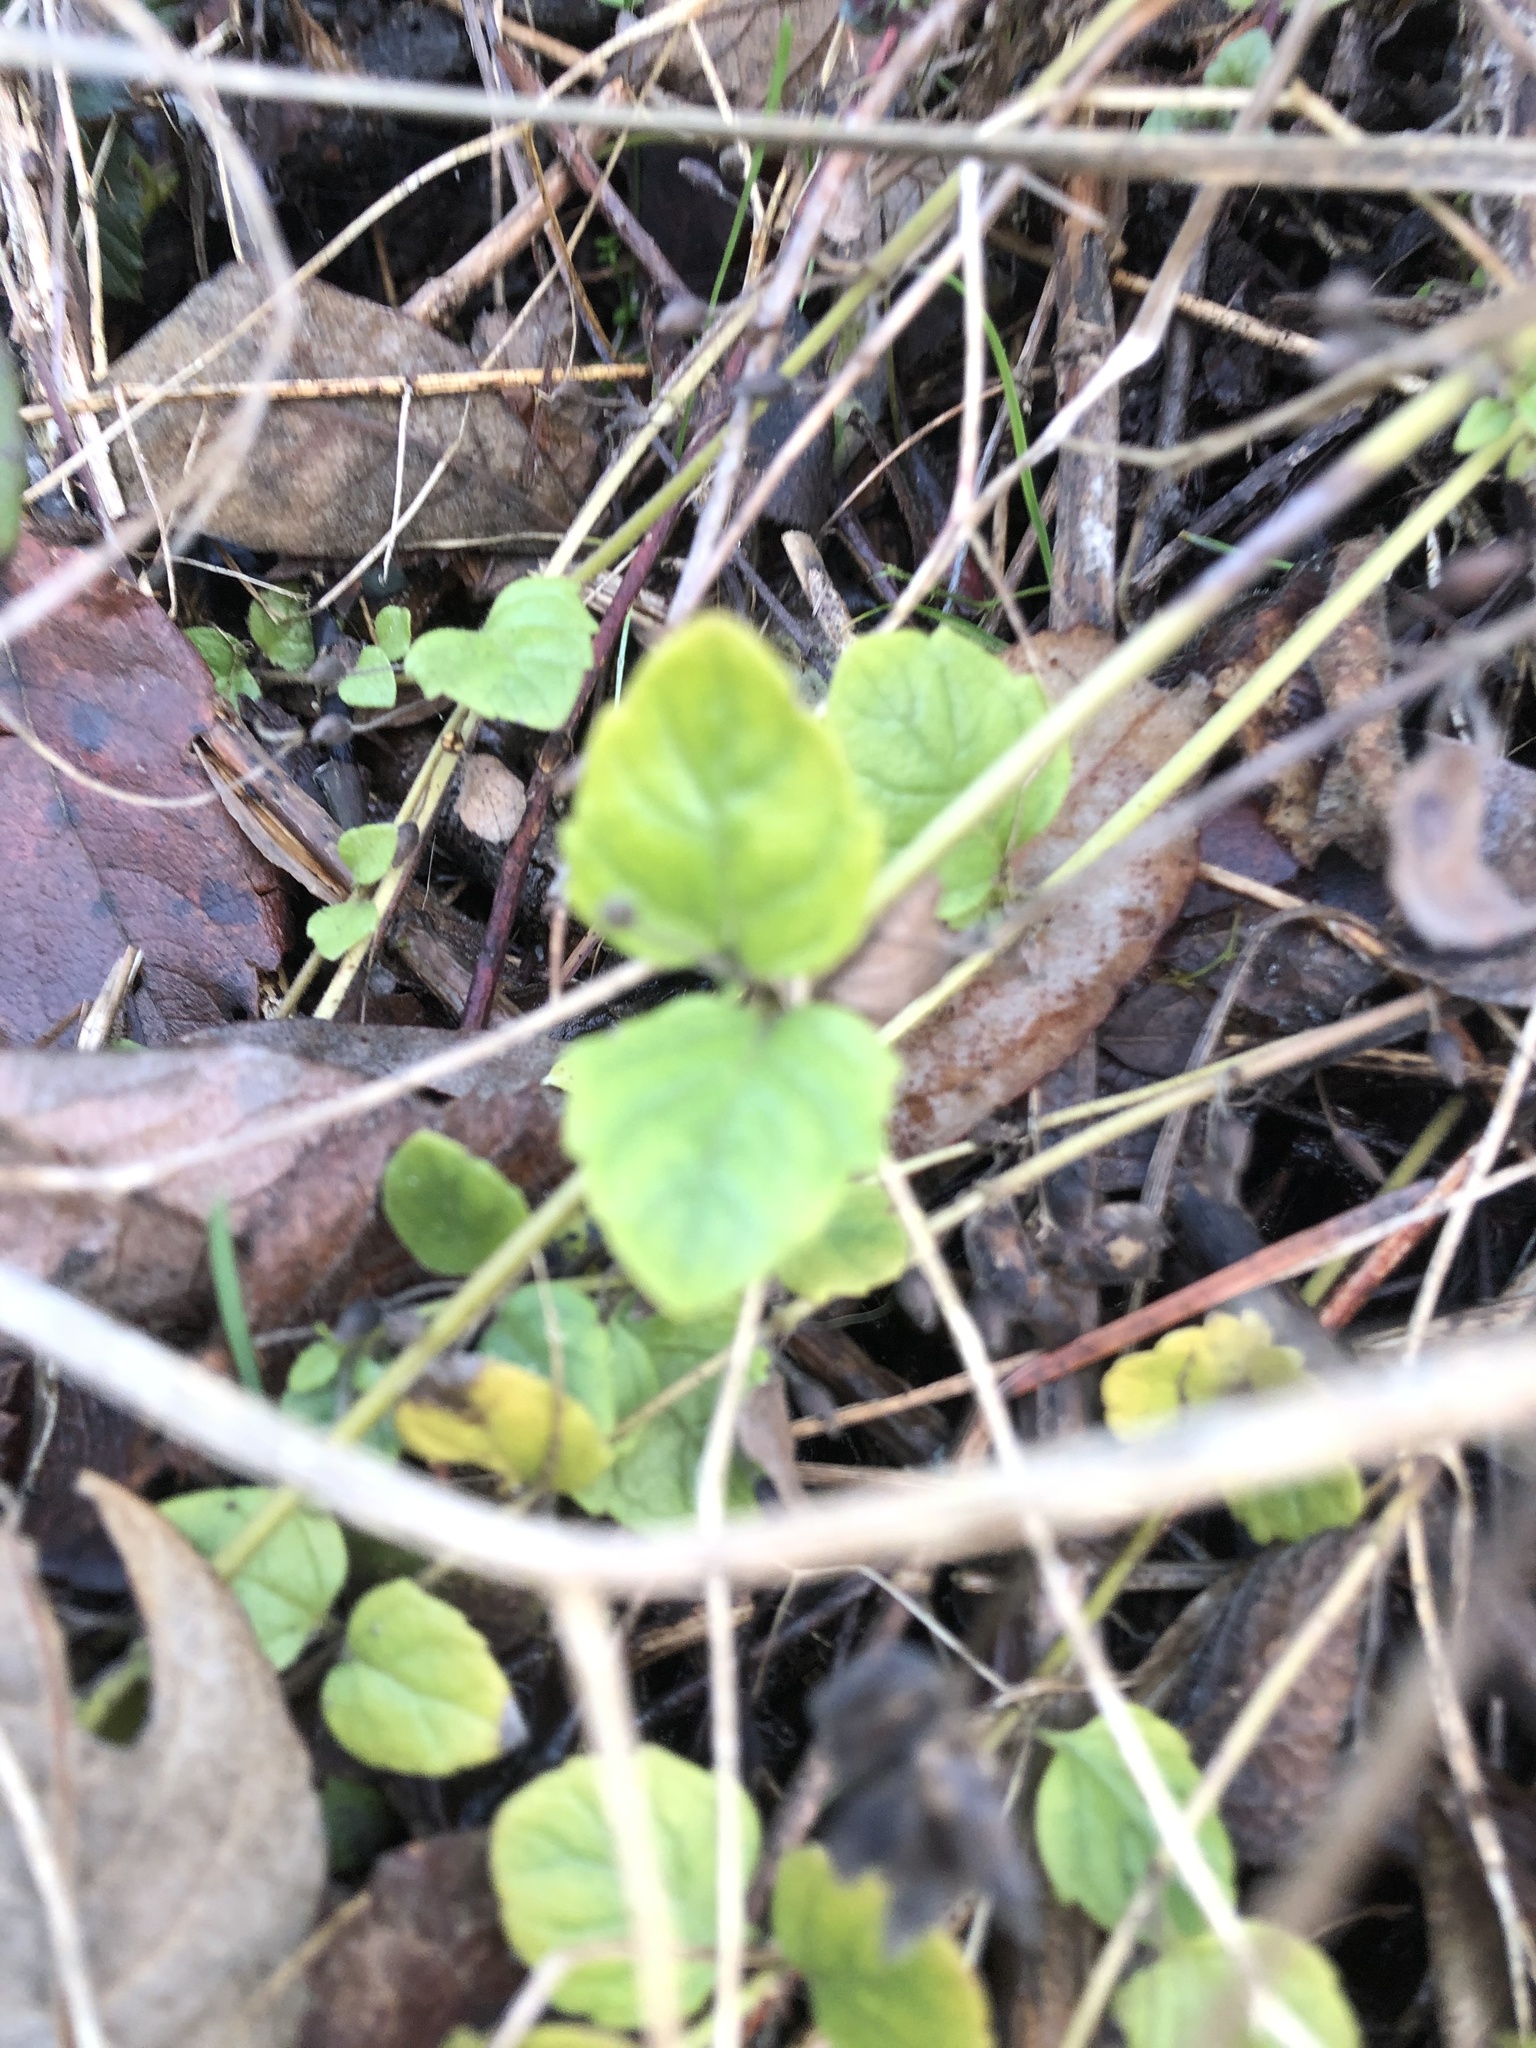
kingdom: Plantae
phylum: Tracheophyta
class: Magnoliopsida
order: Lamiales
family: Lamiaceae
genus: Micromeria
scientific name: Micromeria douglasii
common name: Yerba buena
